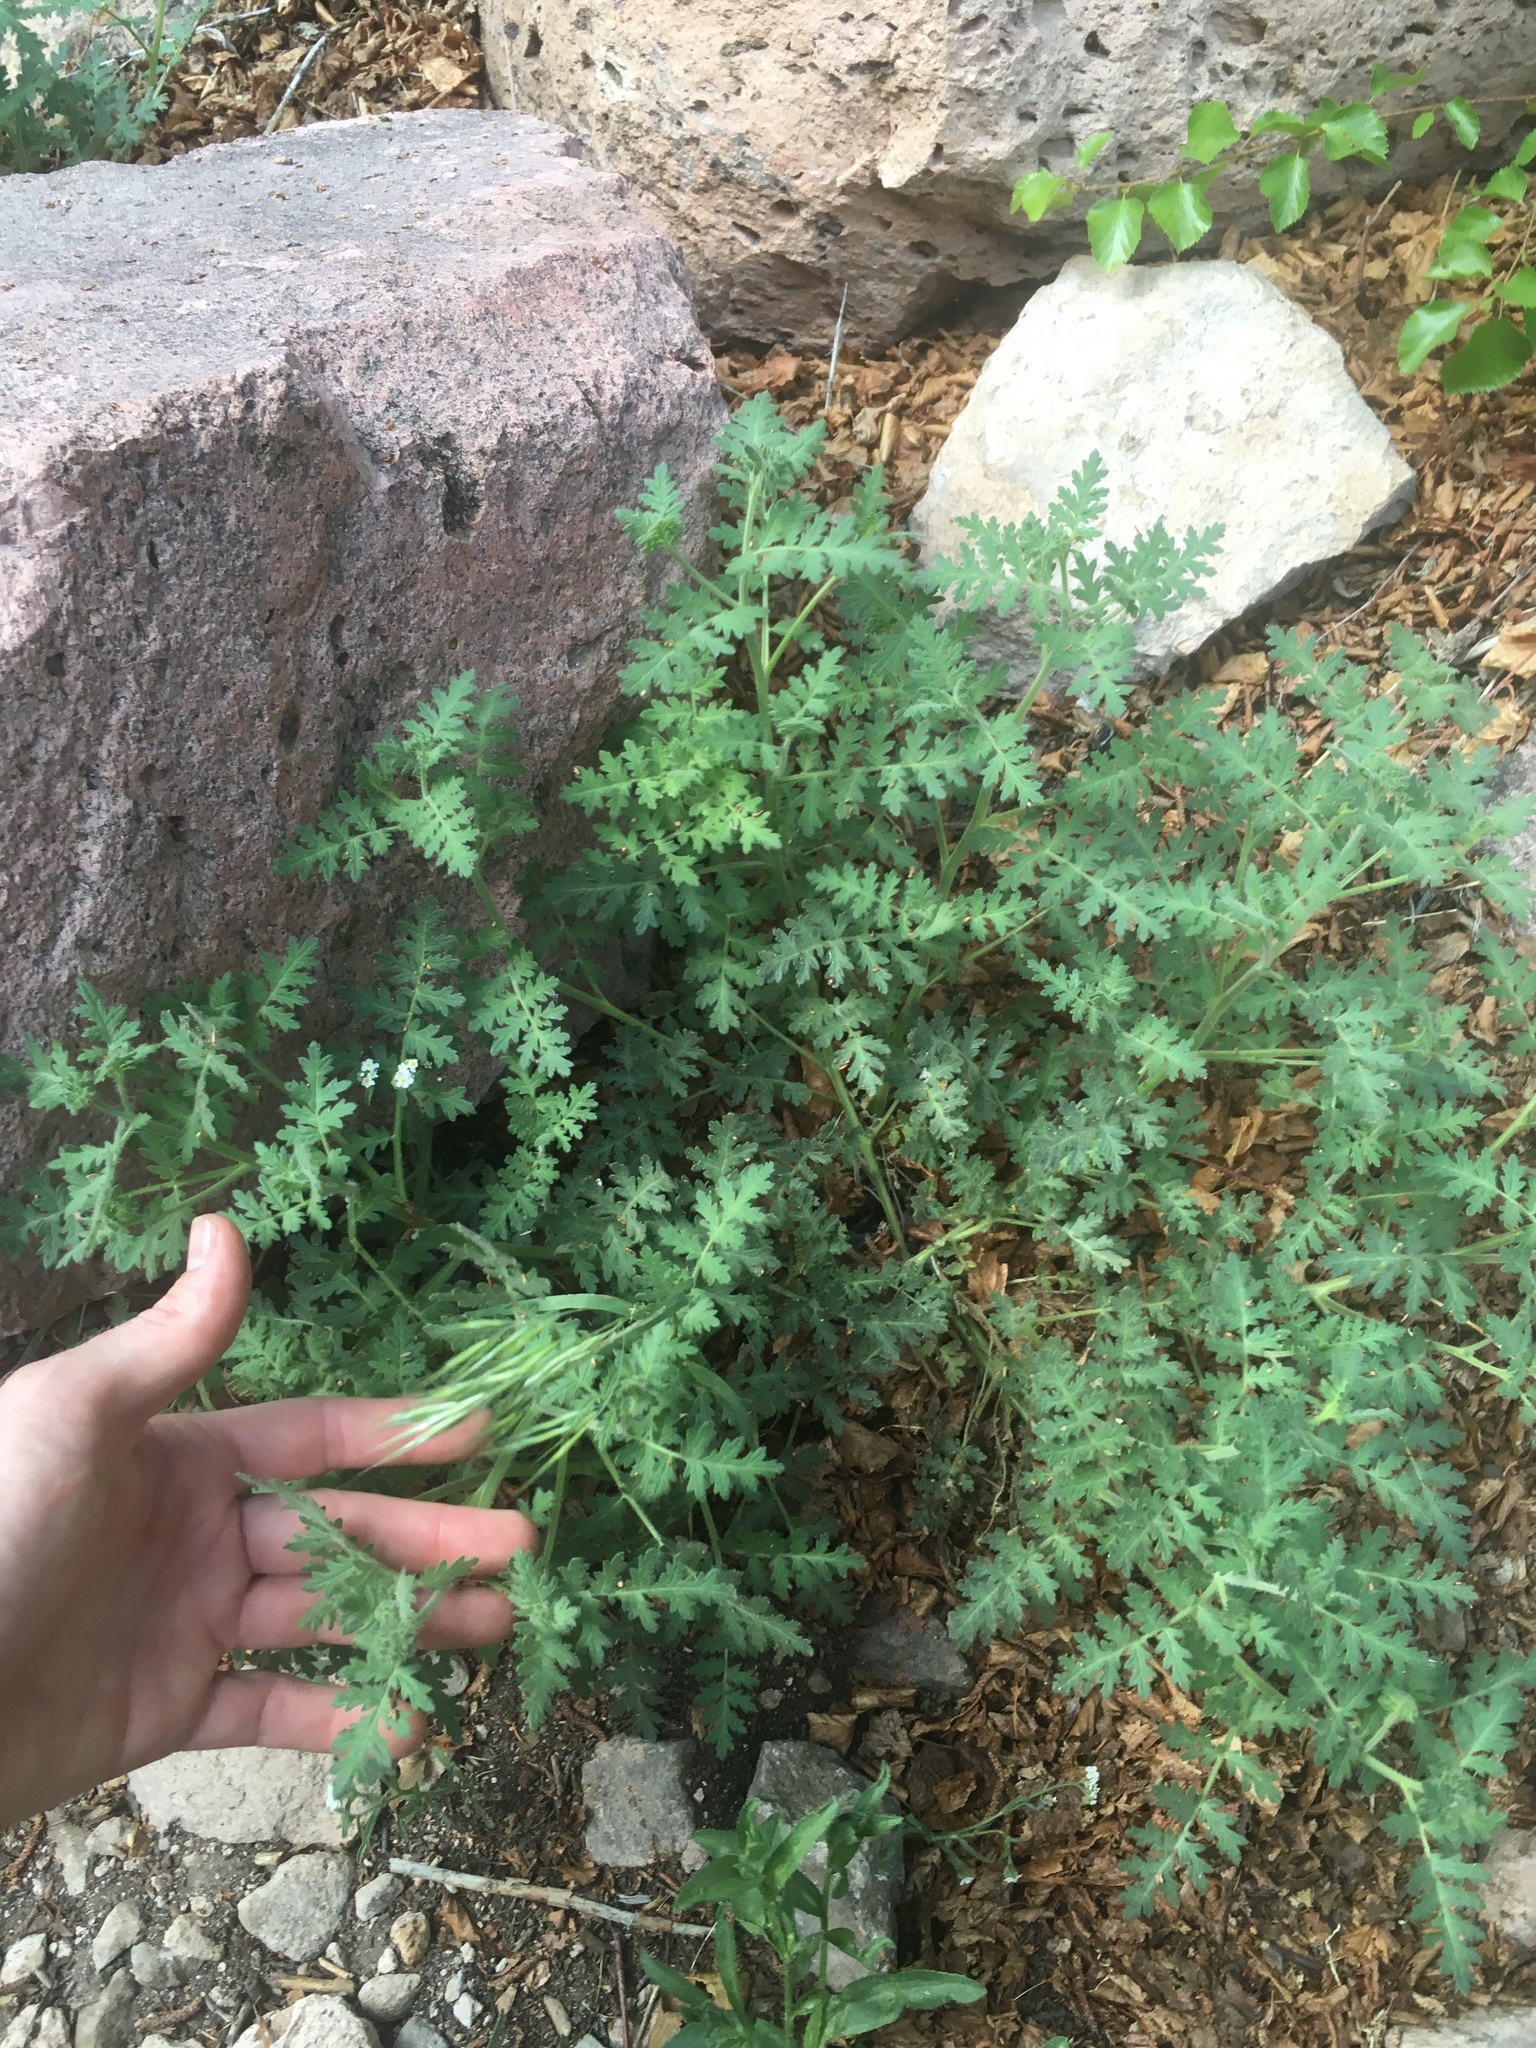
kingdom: Plantae
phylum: Tracheophyta
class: Magnoliopsida
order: Boraginales
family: Hydrophyllaceae
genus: Phacelia
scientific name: Phacelia ramosissima
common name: Branching phacelia
